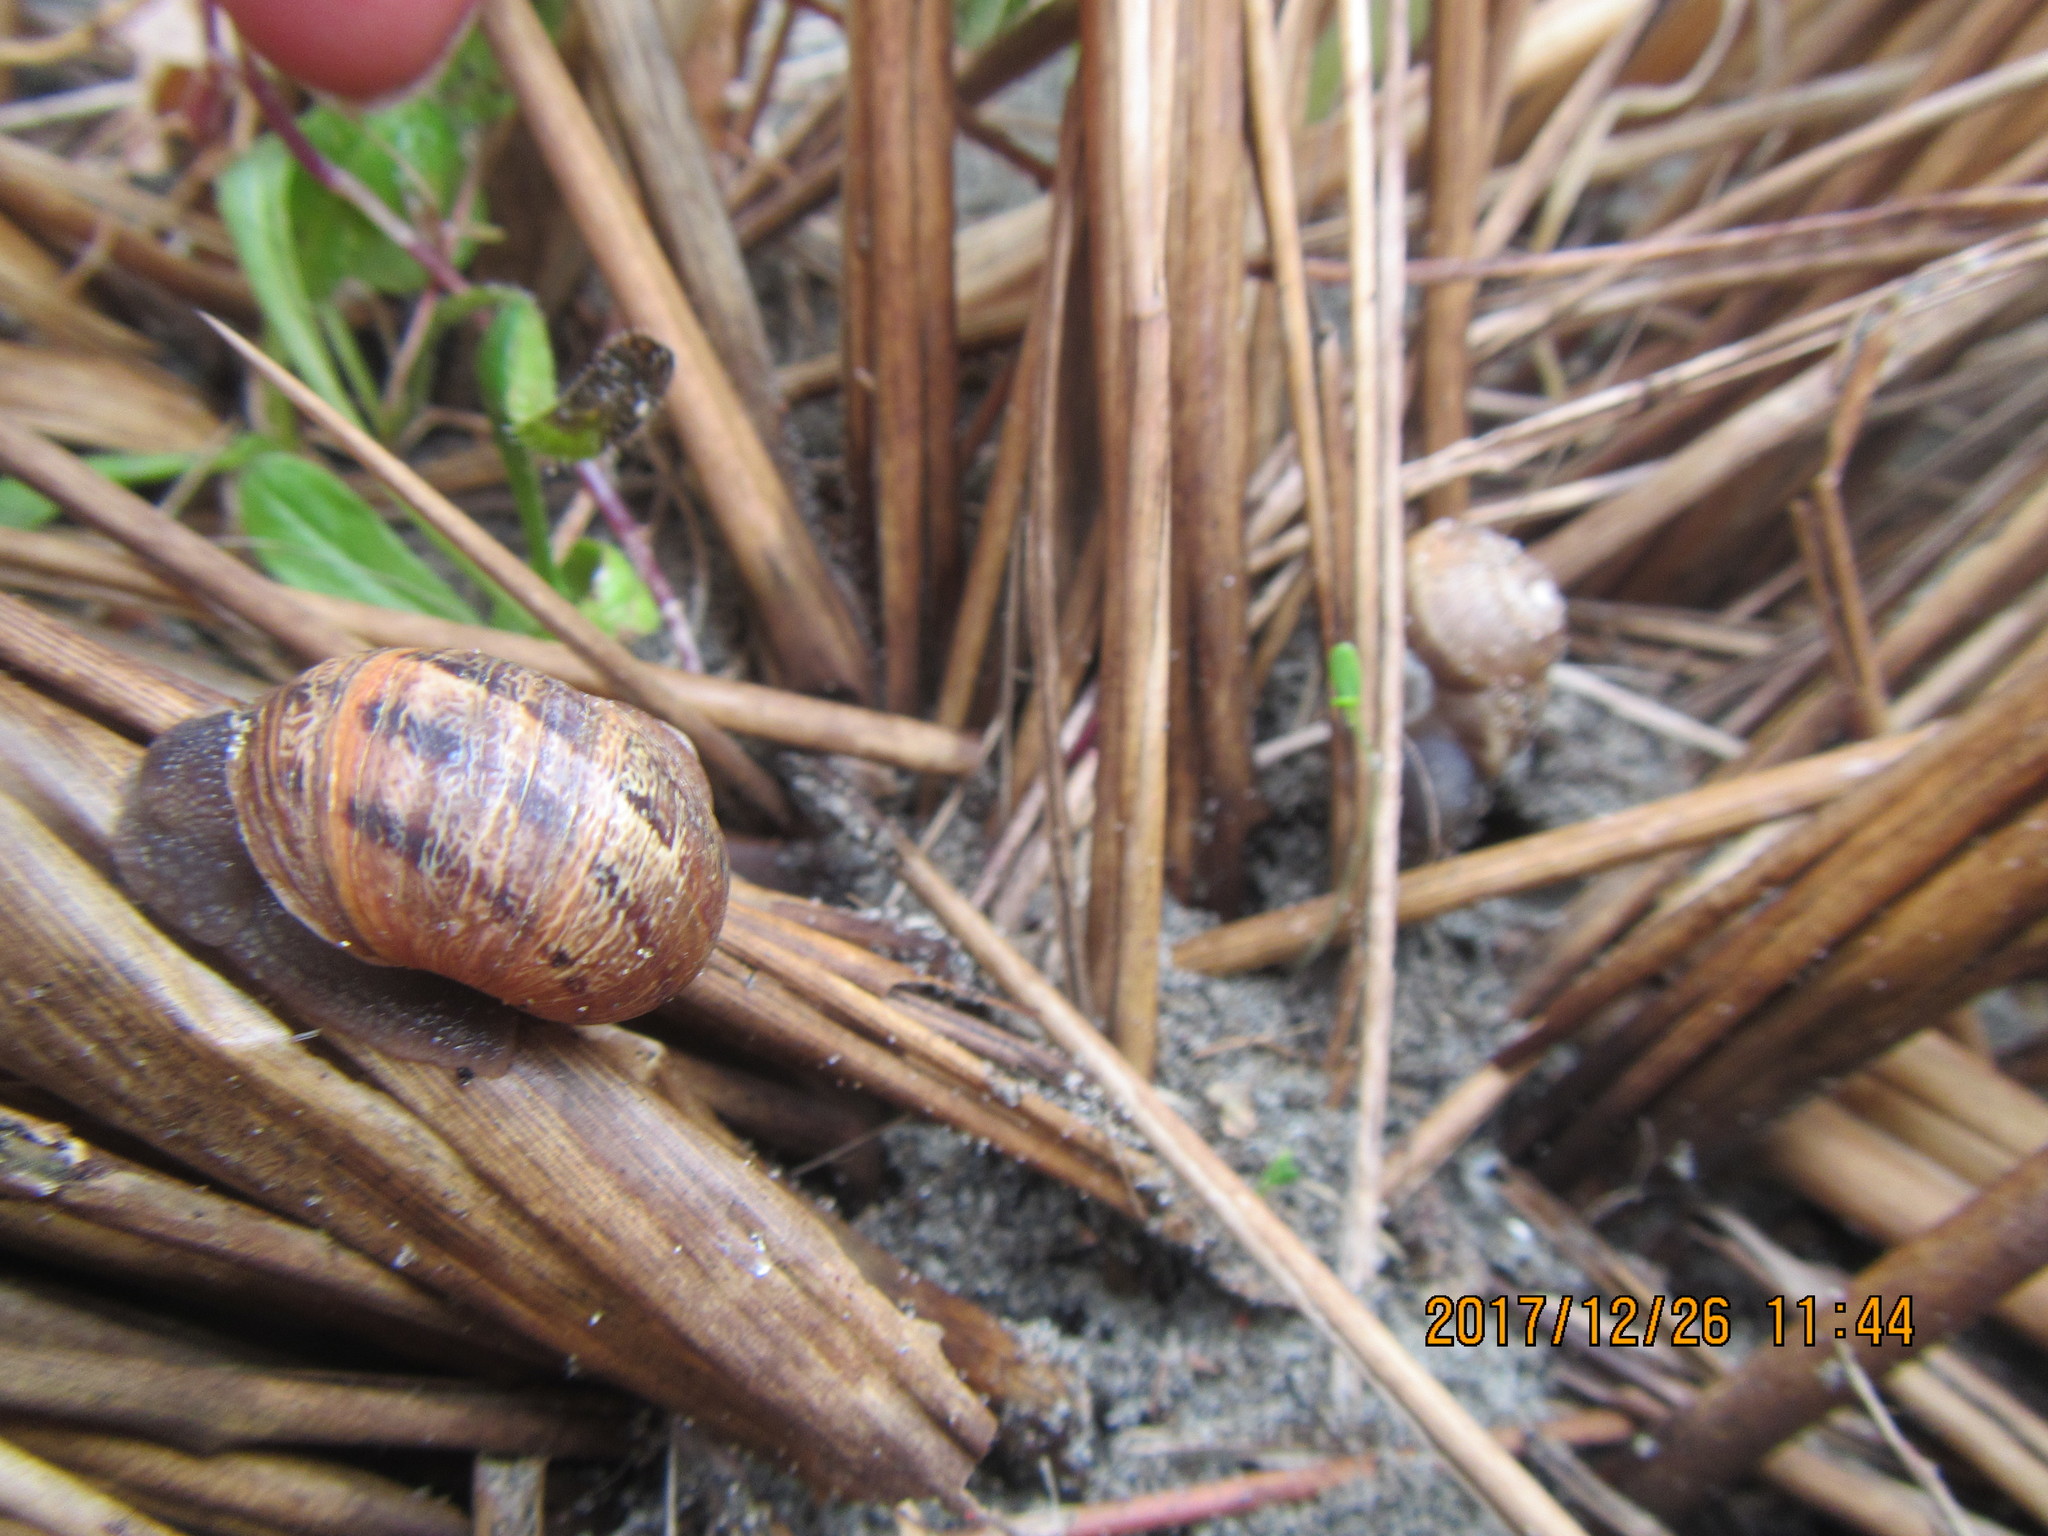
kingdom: Animalia
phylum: Mollusca
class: Gastropoda
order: Stylommatophora
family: Helicidae
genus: Cornu
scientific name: Cornu aspersum
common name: Brown garden snail
